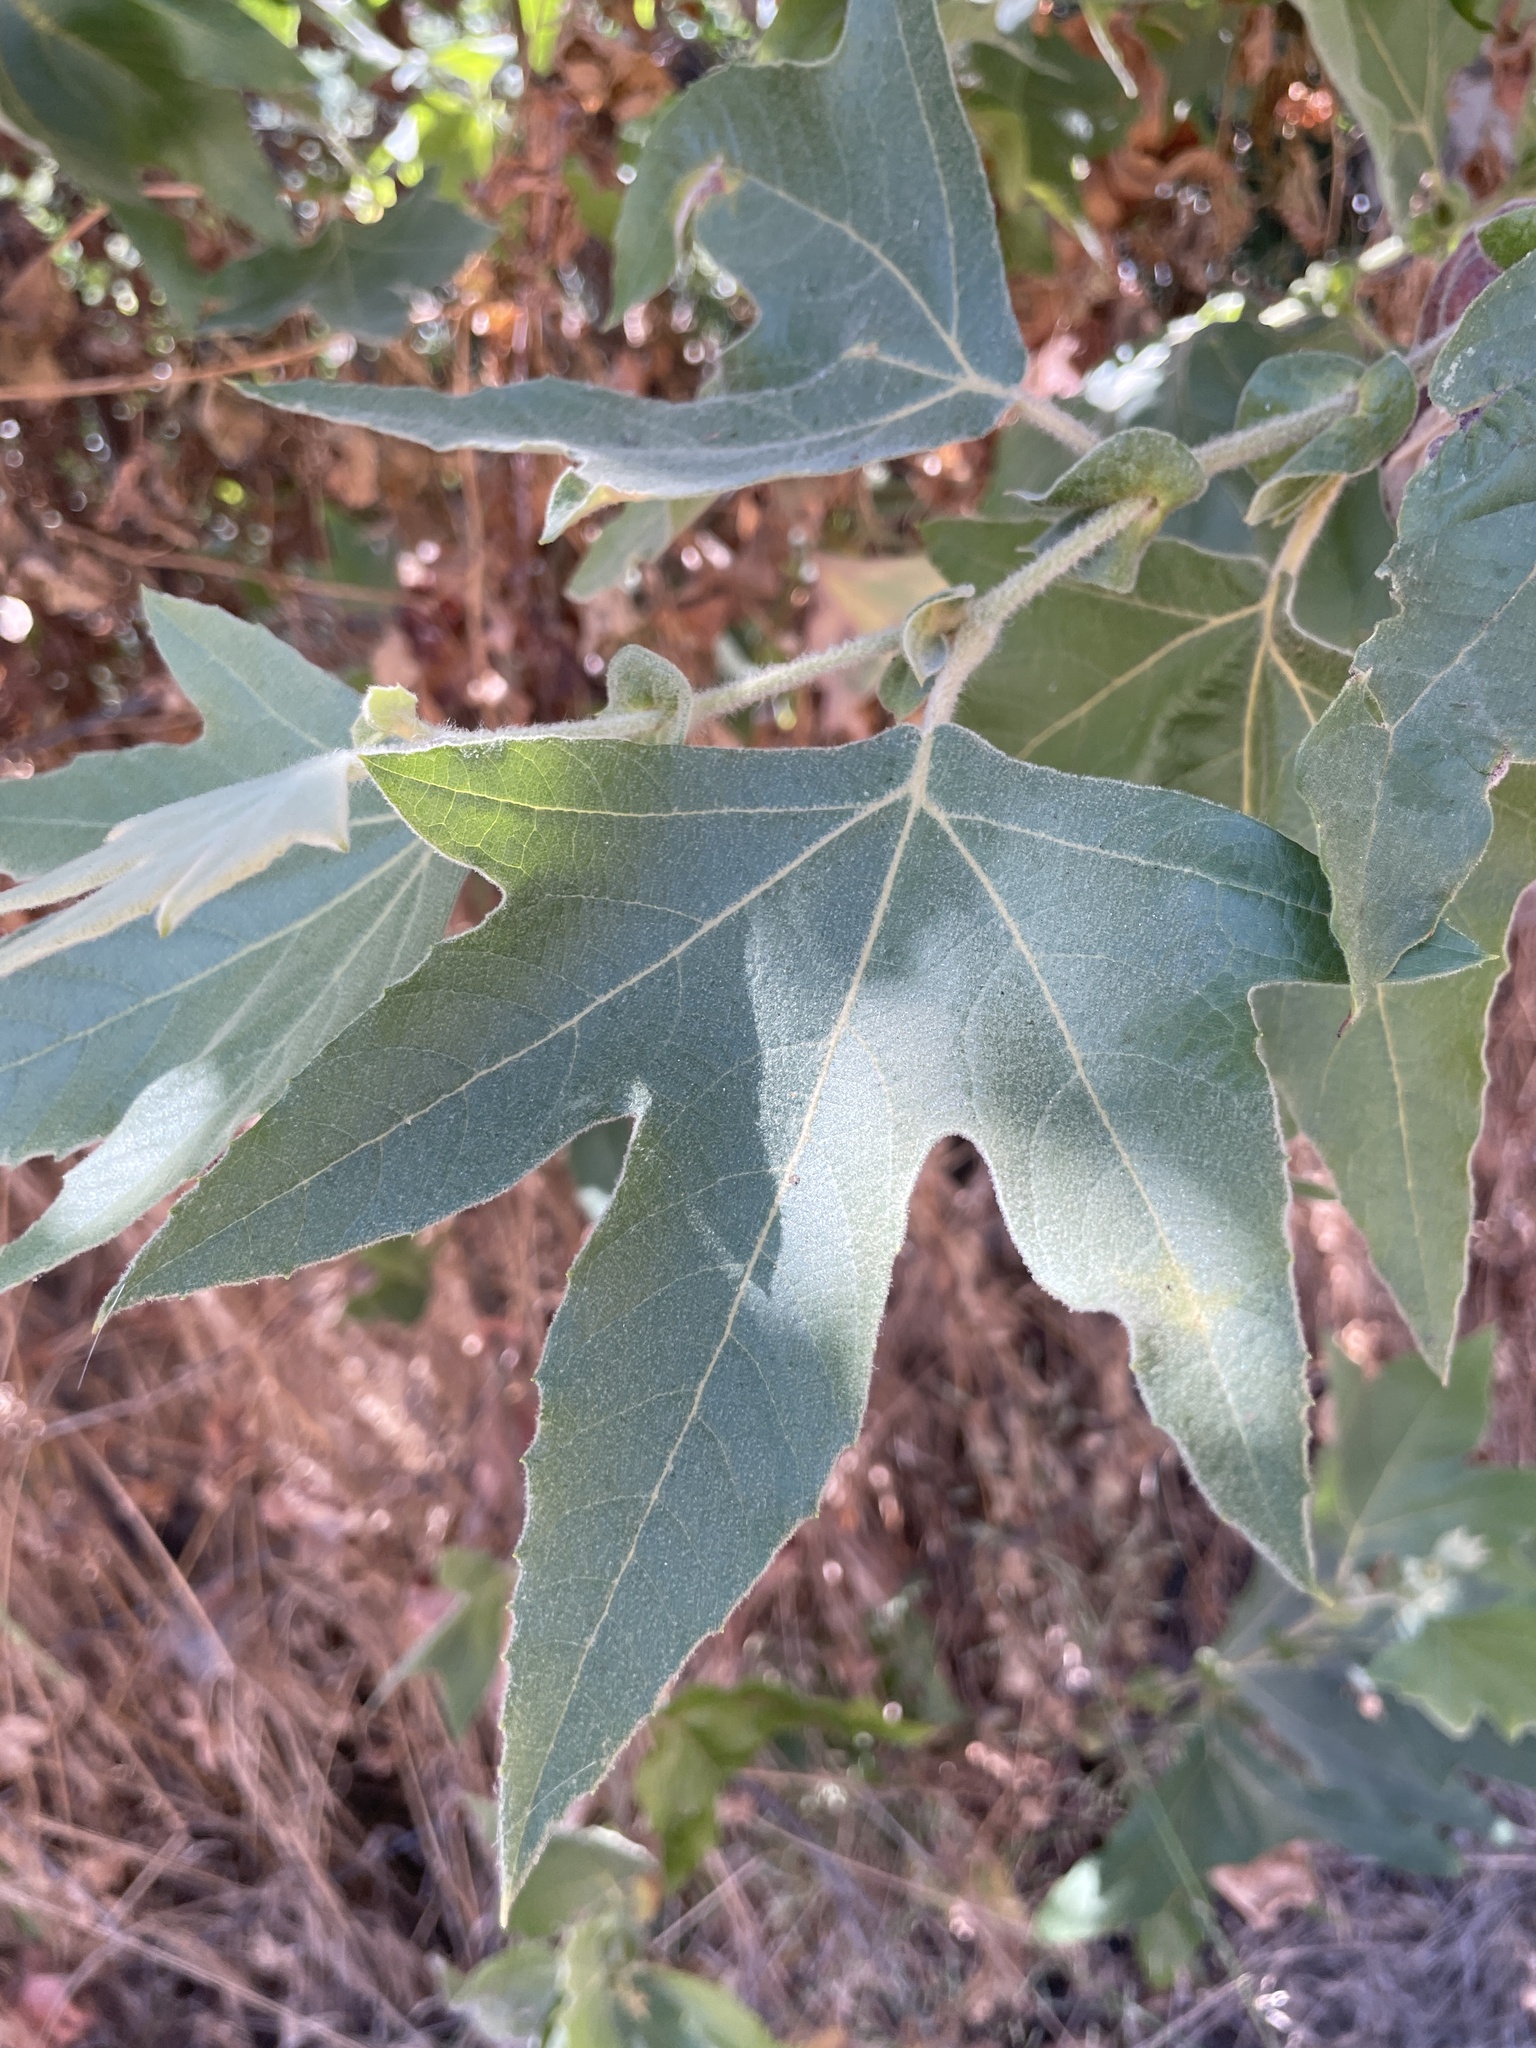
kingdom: Plantae
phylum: Tracheophyta
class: Magnoliopsida
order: Proteales
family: Platanaceae
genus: Platanus
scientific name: Platanus racemosa
